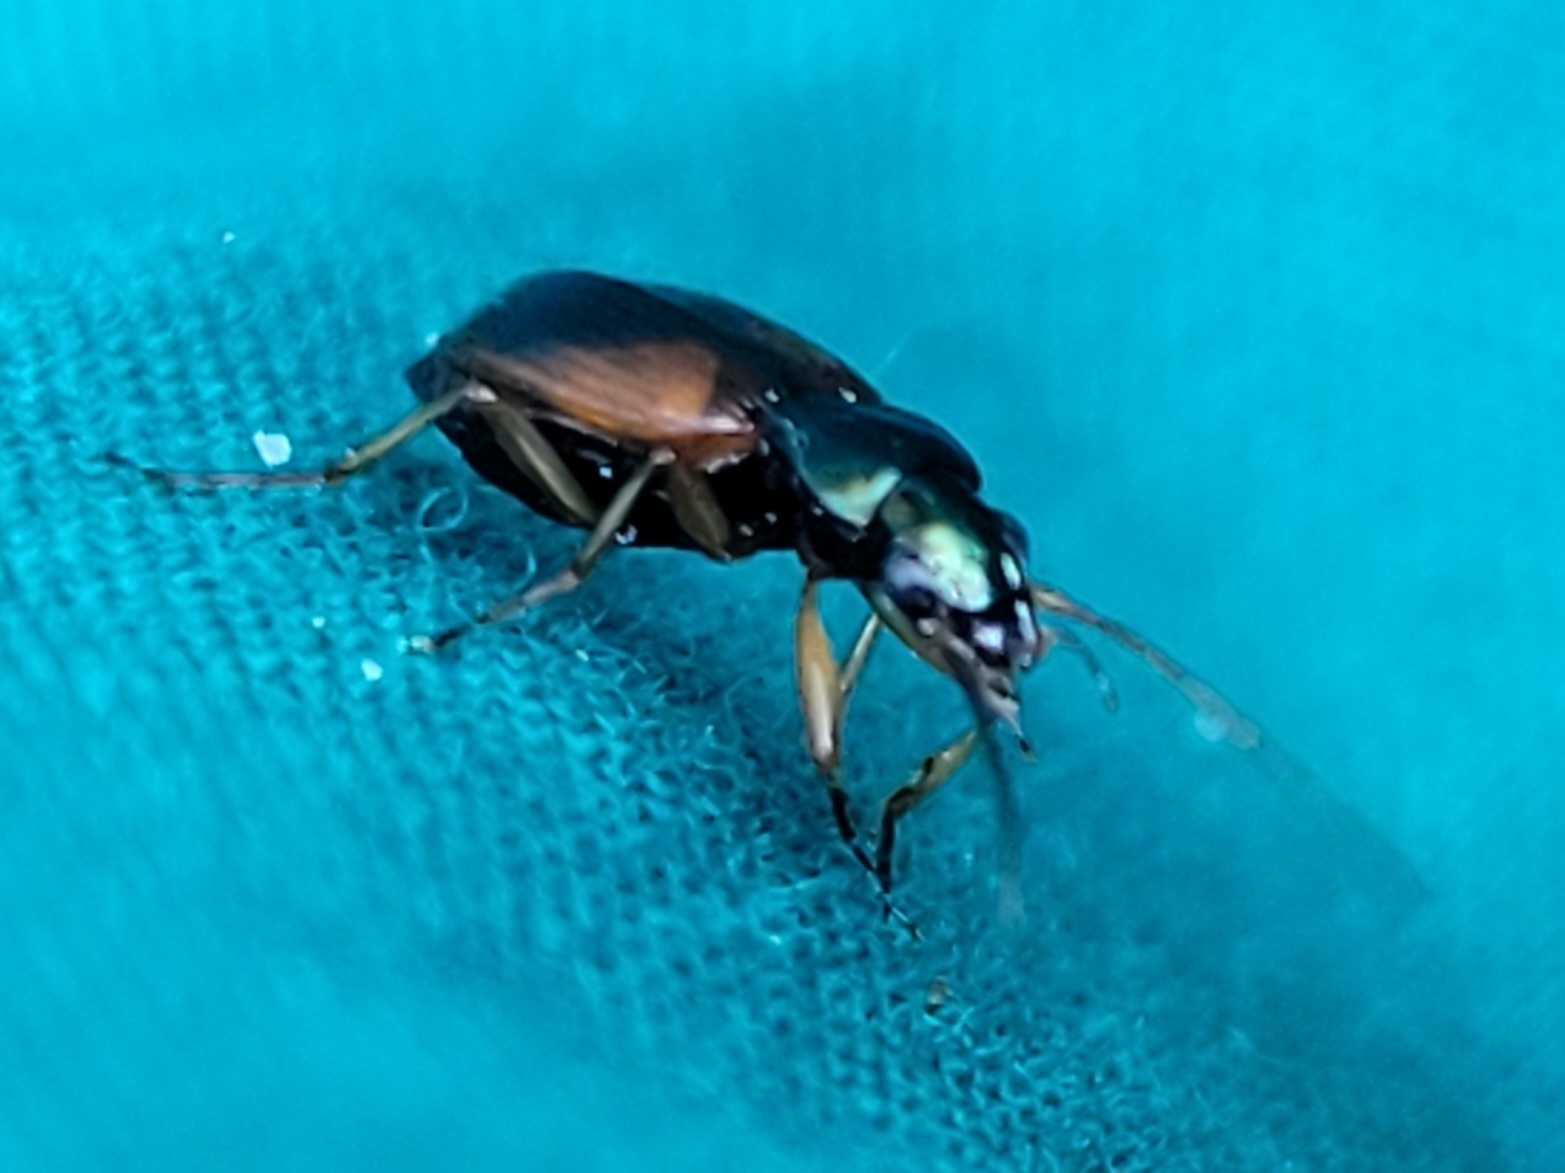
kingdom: Animalia
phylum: Arthropoda
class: Insecta
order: Coleoptera
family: Carabidae
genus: Anchomenus
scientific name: Anchomenus dorsalis
